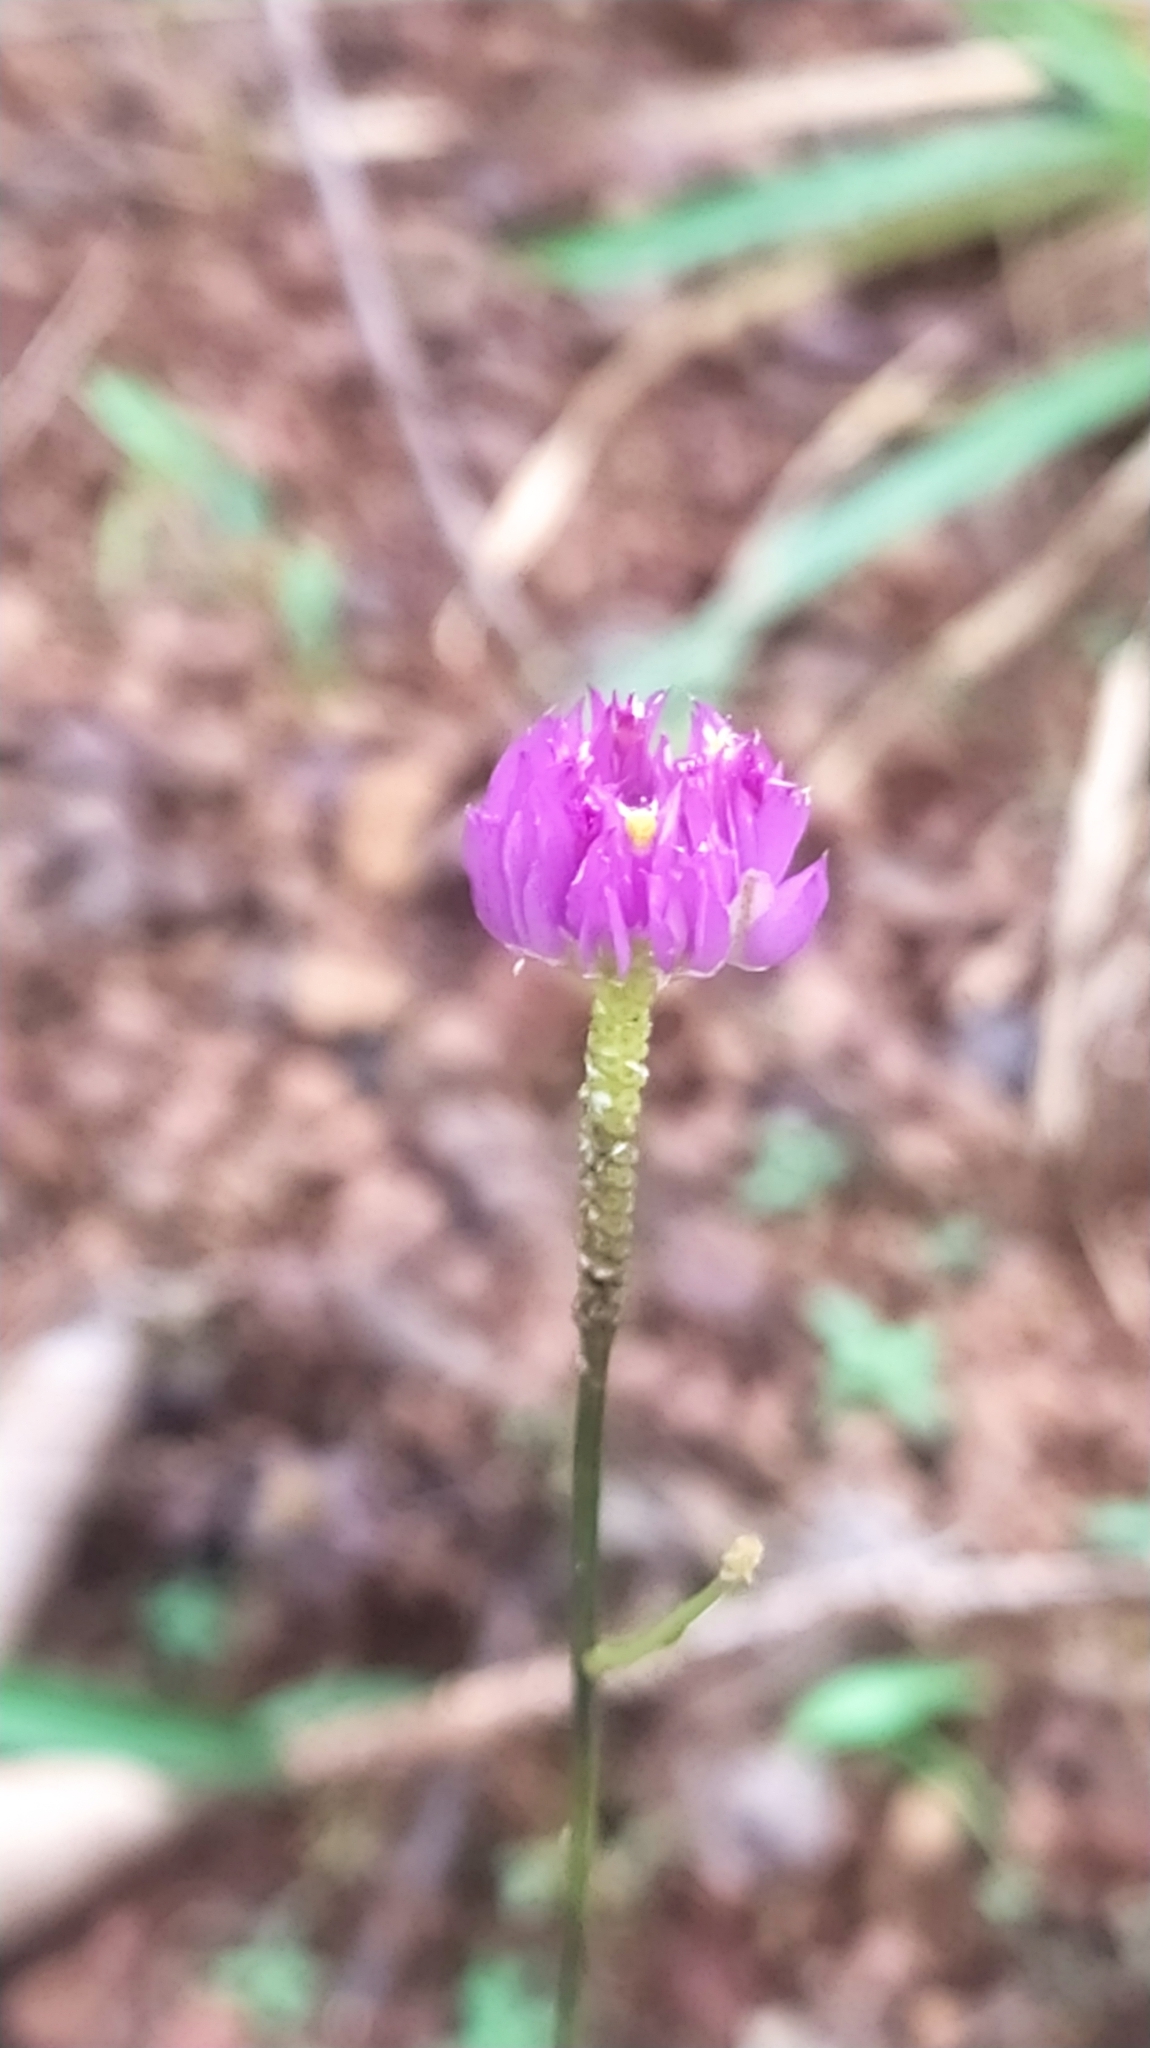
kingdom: Plantae
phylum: Tracheophyta
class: Magnoliopsida
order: Fabales
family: Polygalaceae
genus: Polygala
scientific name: Polygala longicaulis
